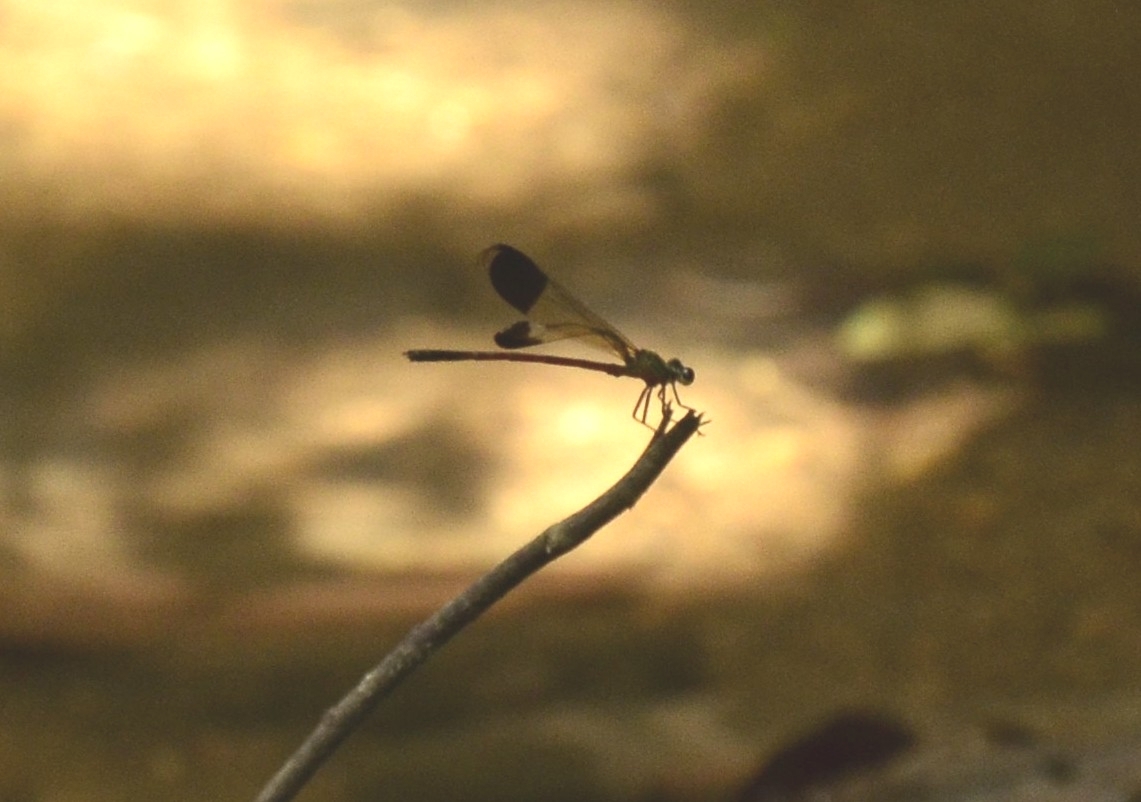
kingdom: Animalia
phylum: Arthropoda
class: Insecta
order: Odonata
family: Euphaeidae
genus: Euphaea
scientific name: Euphaea fraseri
